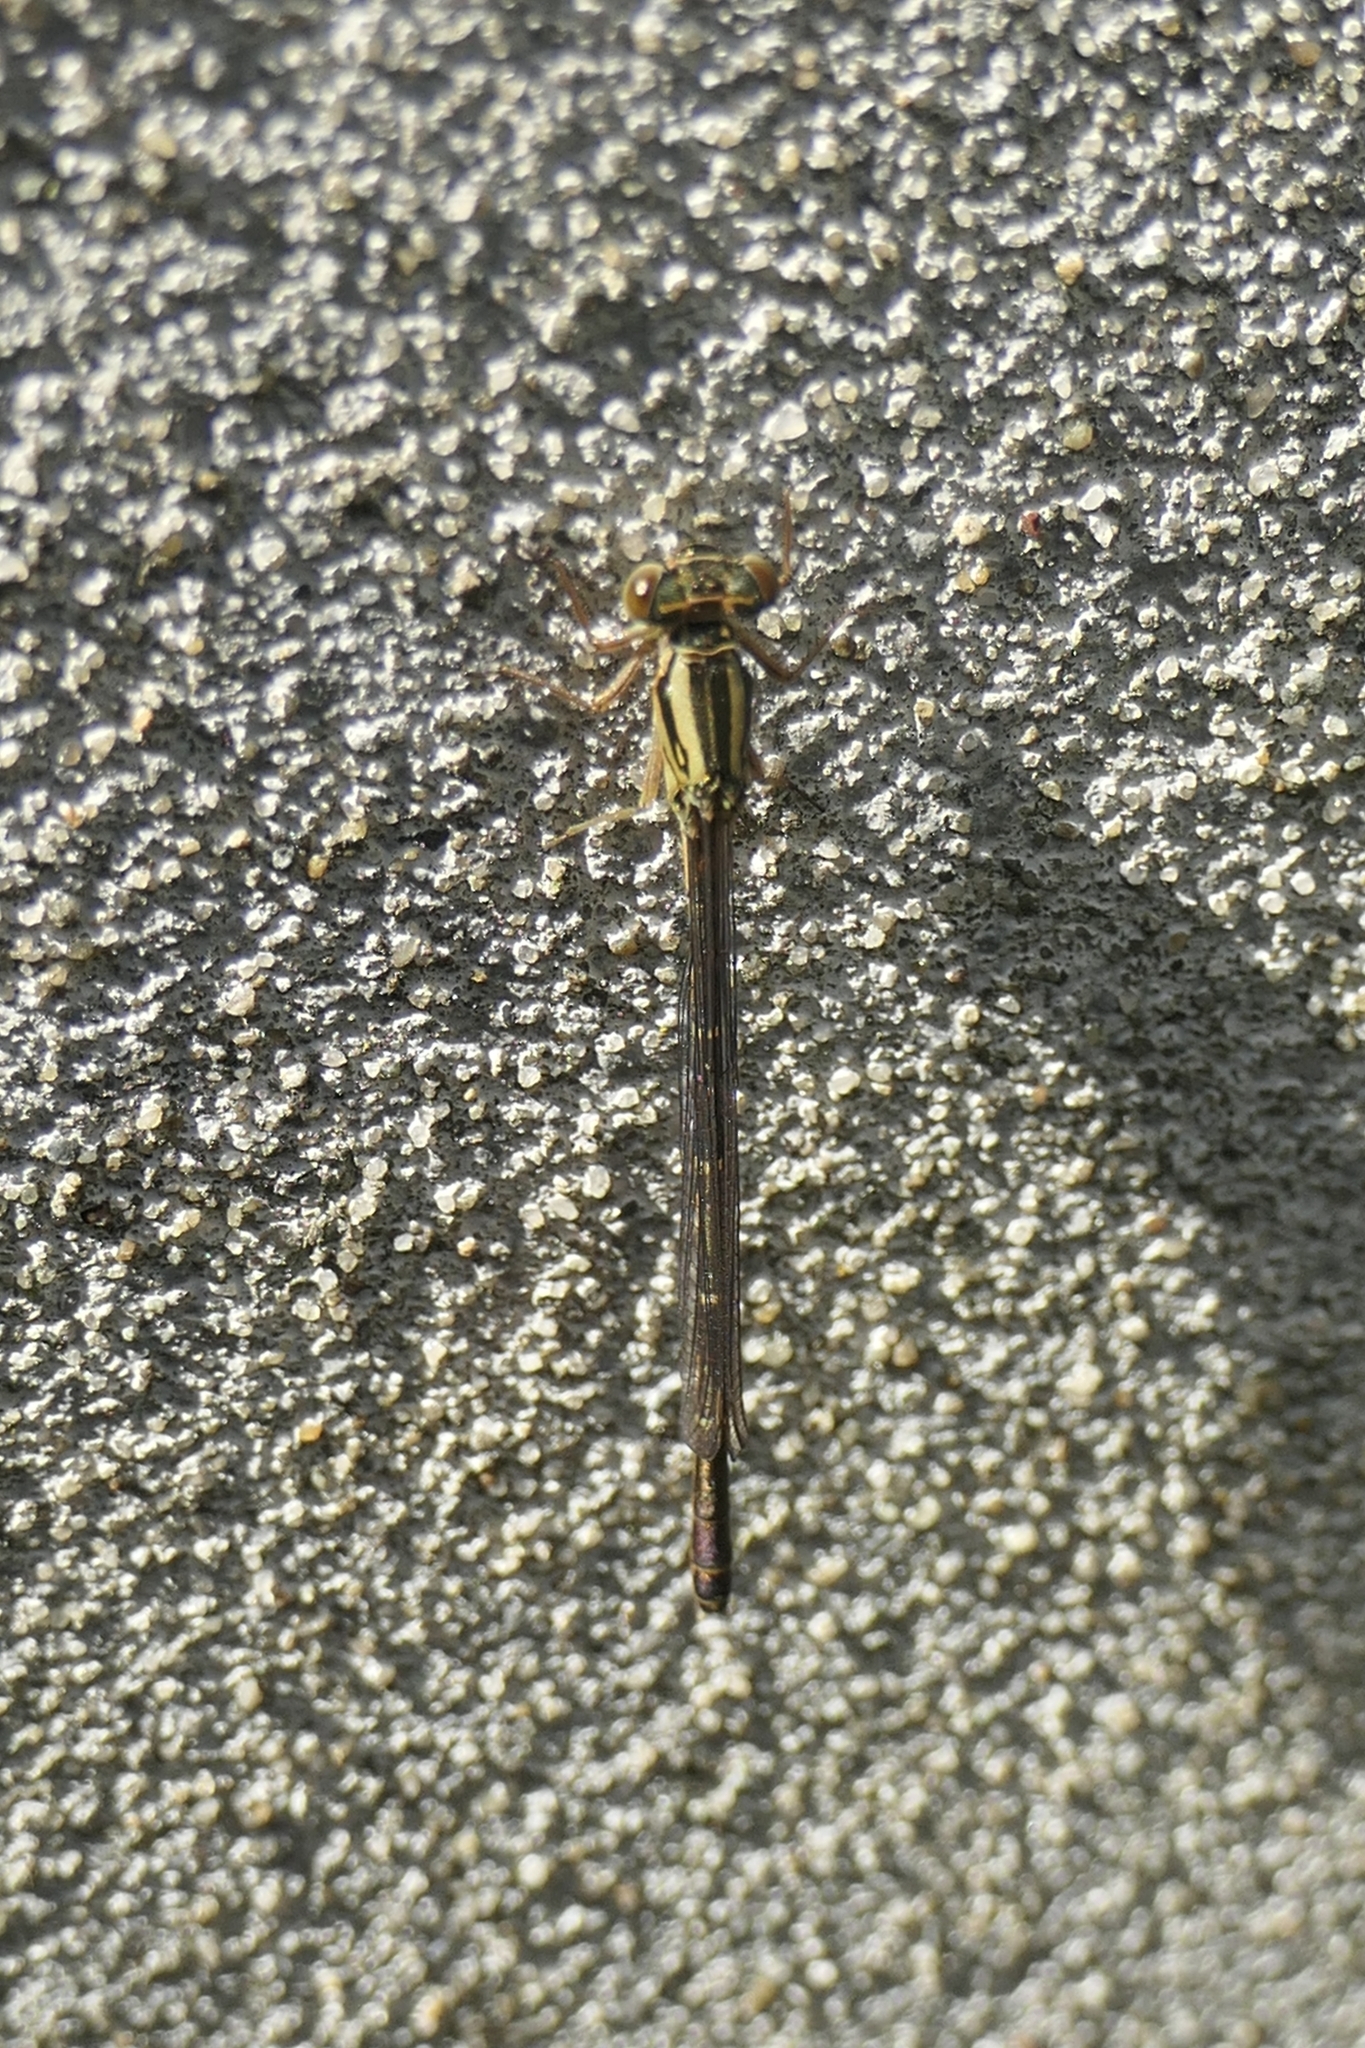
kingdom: Animalia
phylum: Arthropoda
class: Insecta
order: Odonata
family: Coenagrionidae
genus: Xanthocnemis
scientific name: Xanthocnemis zealandica
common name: Common redcoat damselfly
